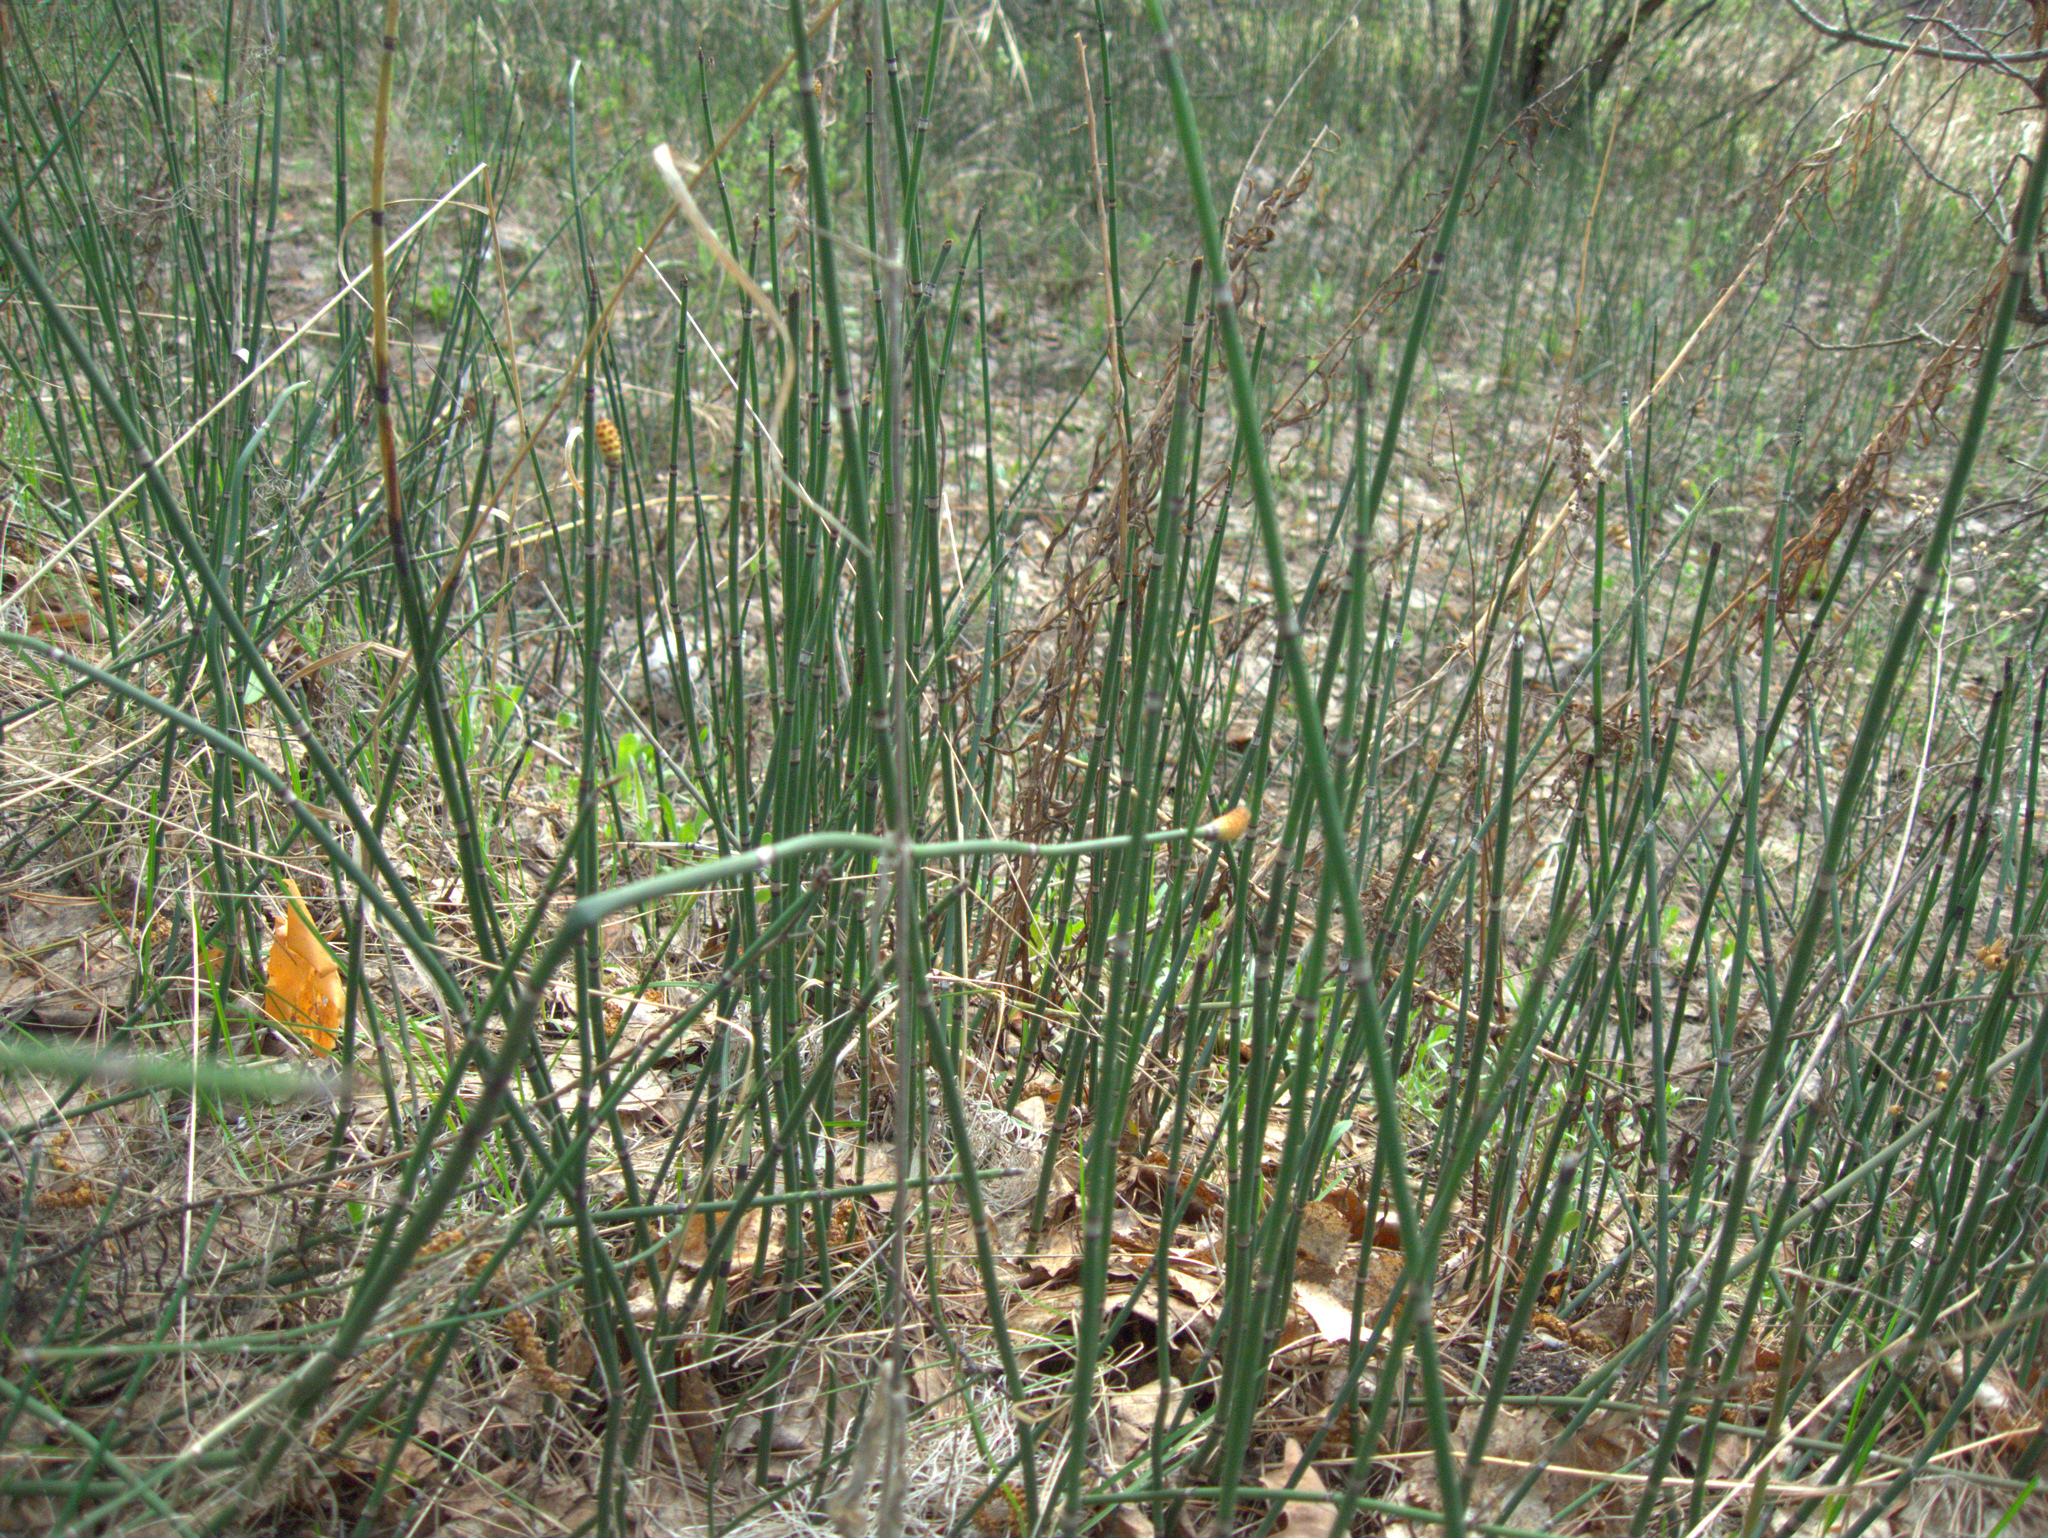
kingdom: Plantae
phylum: Tracheophyta
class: Polypodiopsida
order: Equisetales
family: Equisetaceae
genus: Equisetum
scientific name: Equisetum hyemale
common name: Rough horsetail
